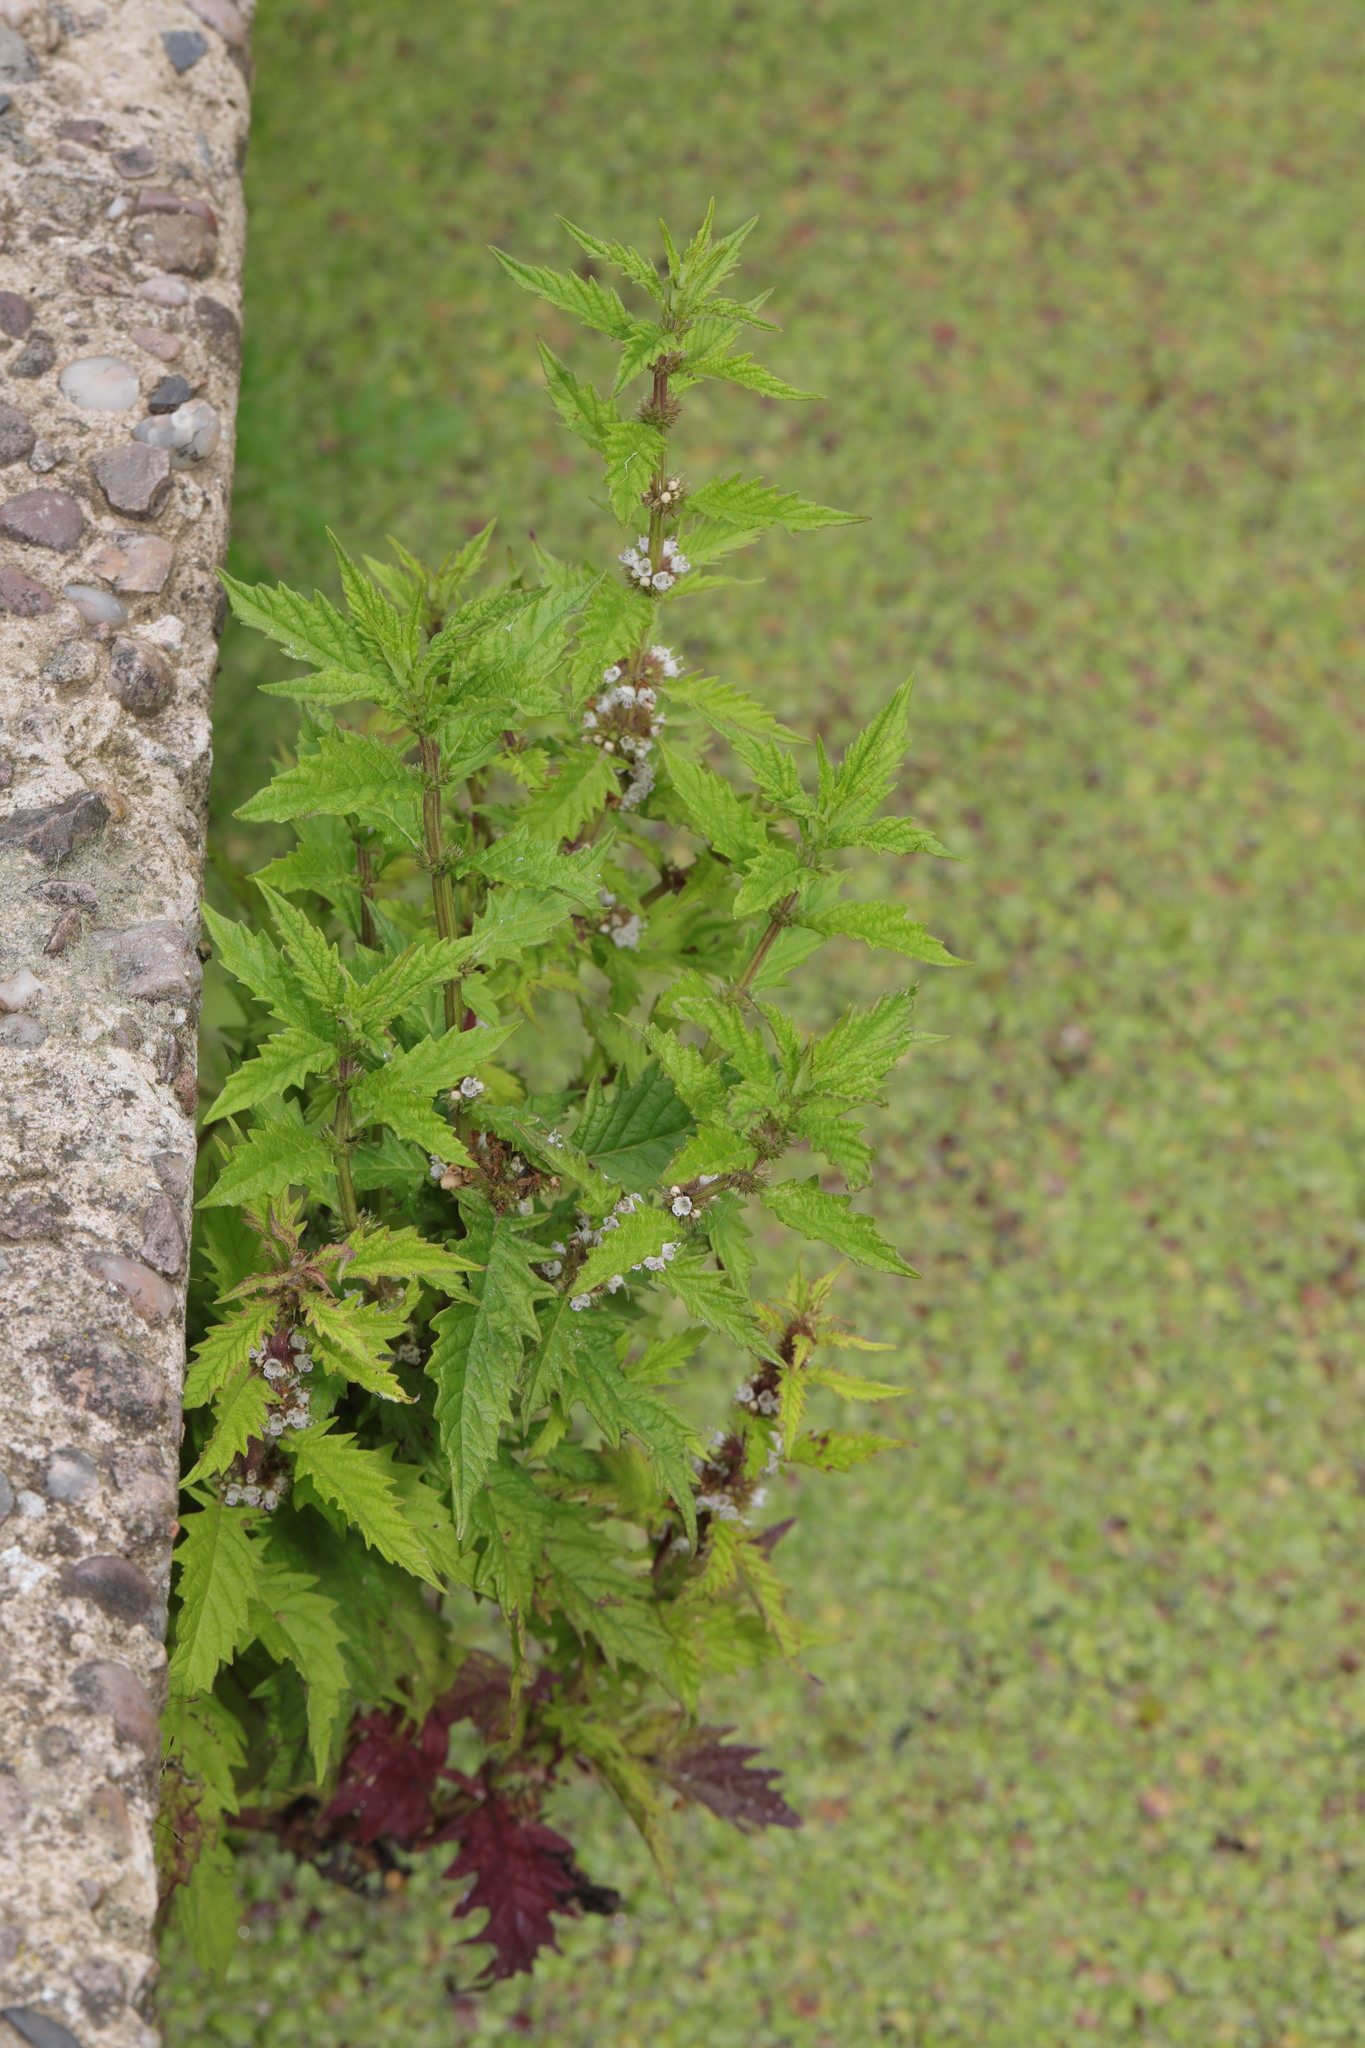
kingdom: Plantae
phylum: Tracheophyta
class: Magnoliopsida
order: Lamiales
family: Lamiaceae
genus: Lycopus
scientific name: Lycopus europaeus
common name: European bugleweed
